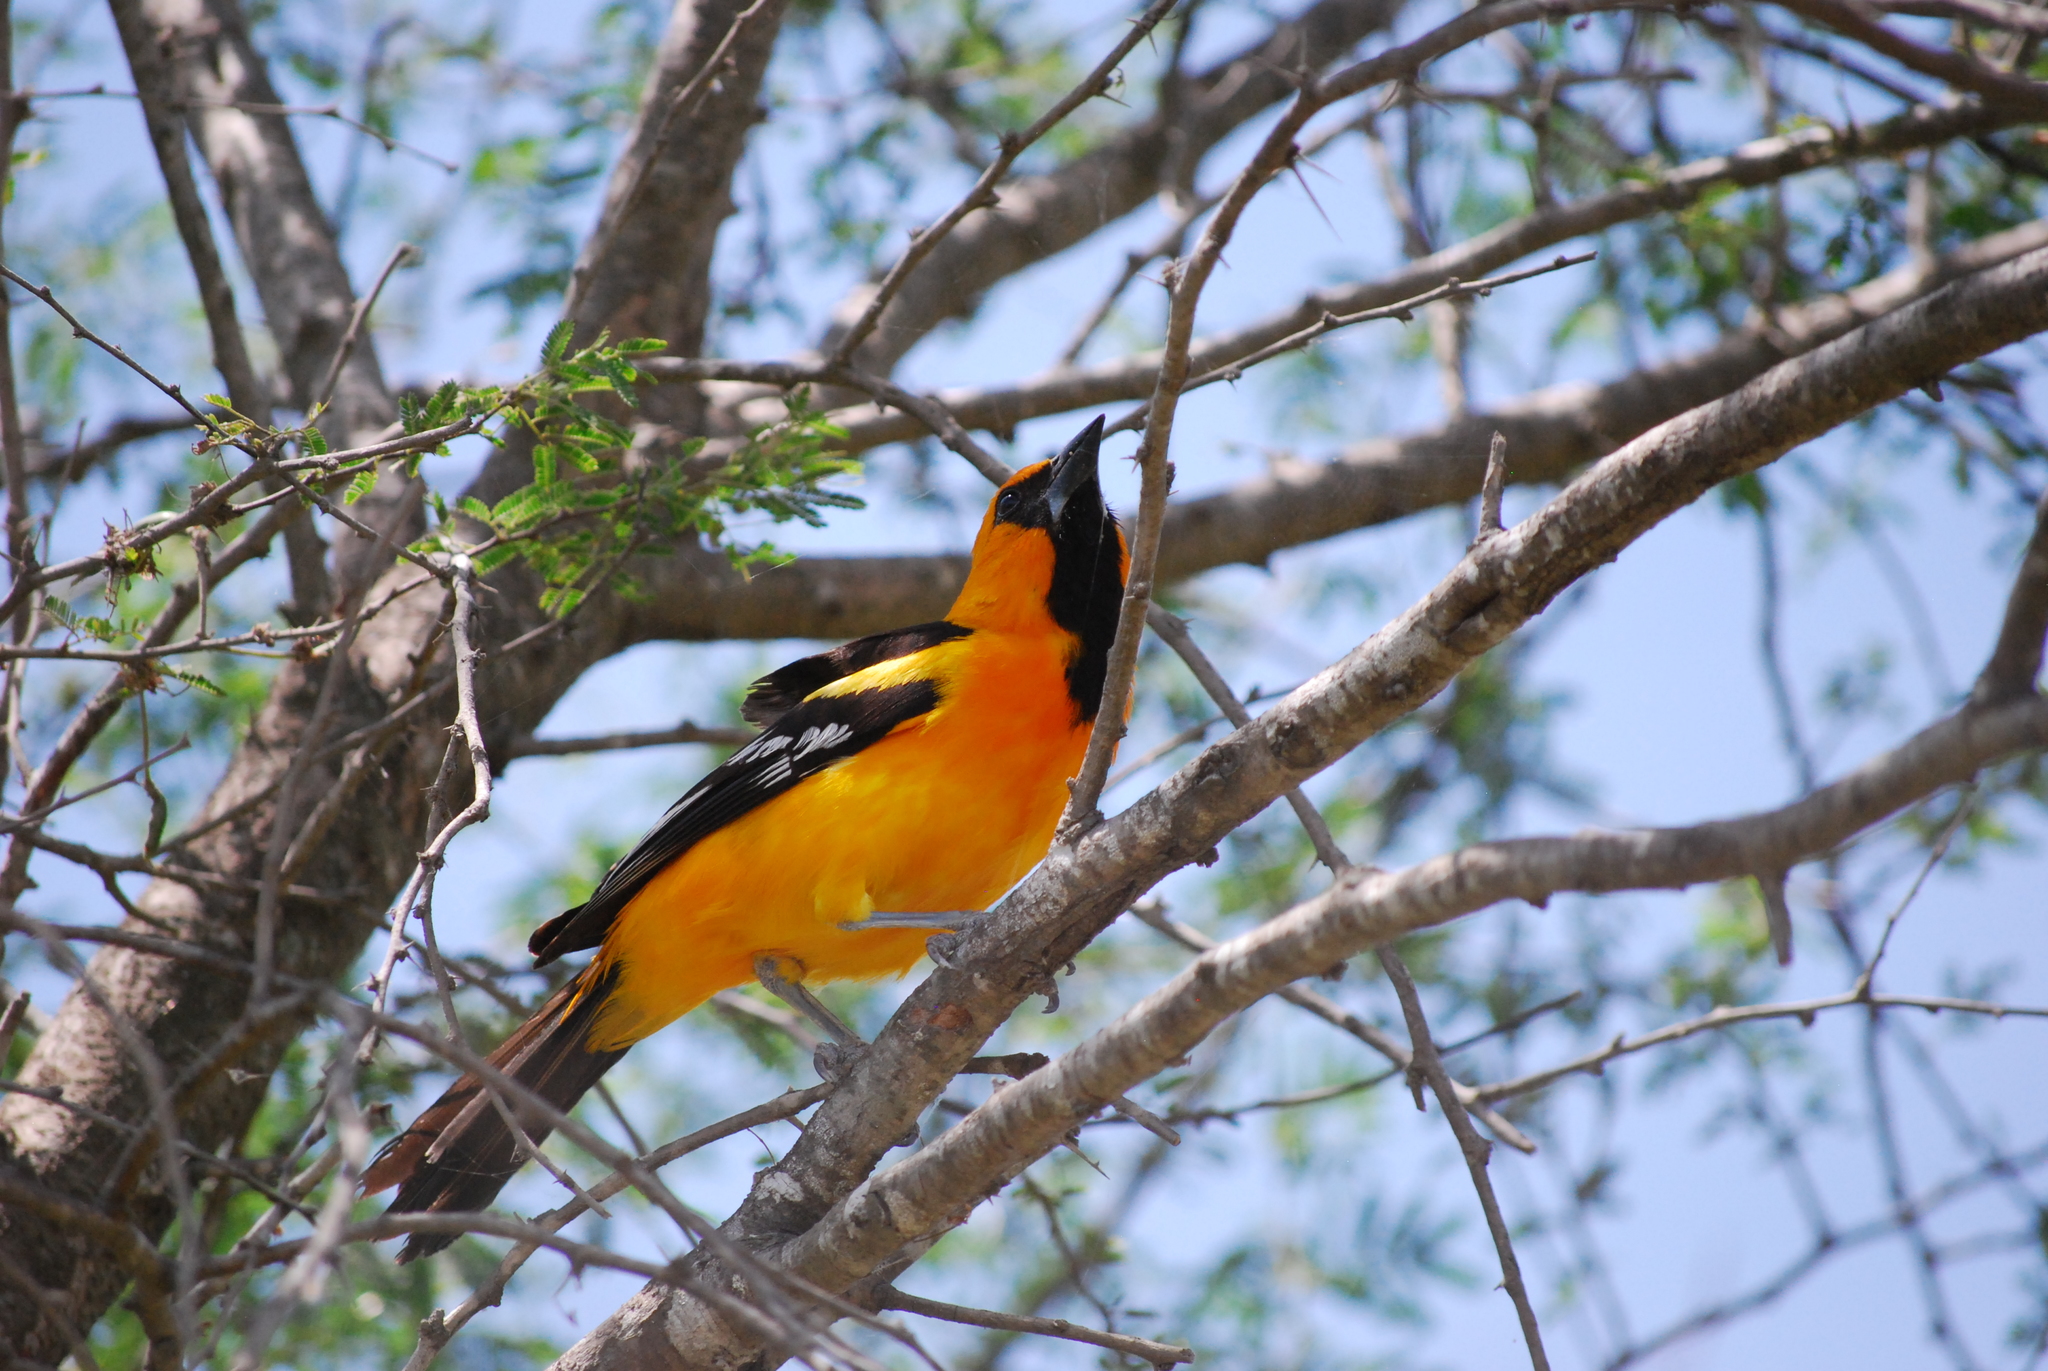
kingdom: Animalia
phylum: Chordata
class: Aves
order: Passeriformes
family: Icteridae
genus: Icterus
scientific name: Icterus gularis
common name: Altamira oriole
